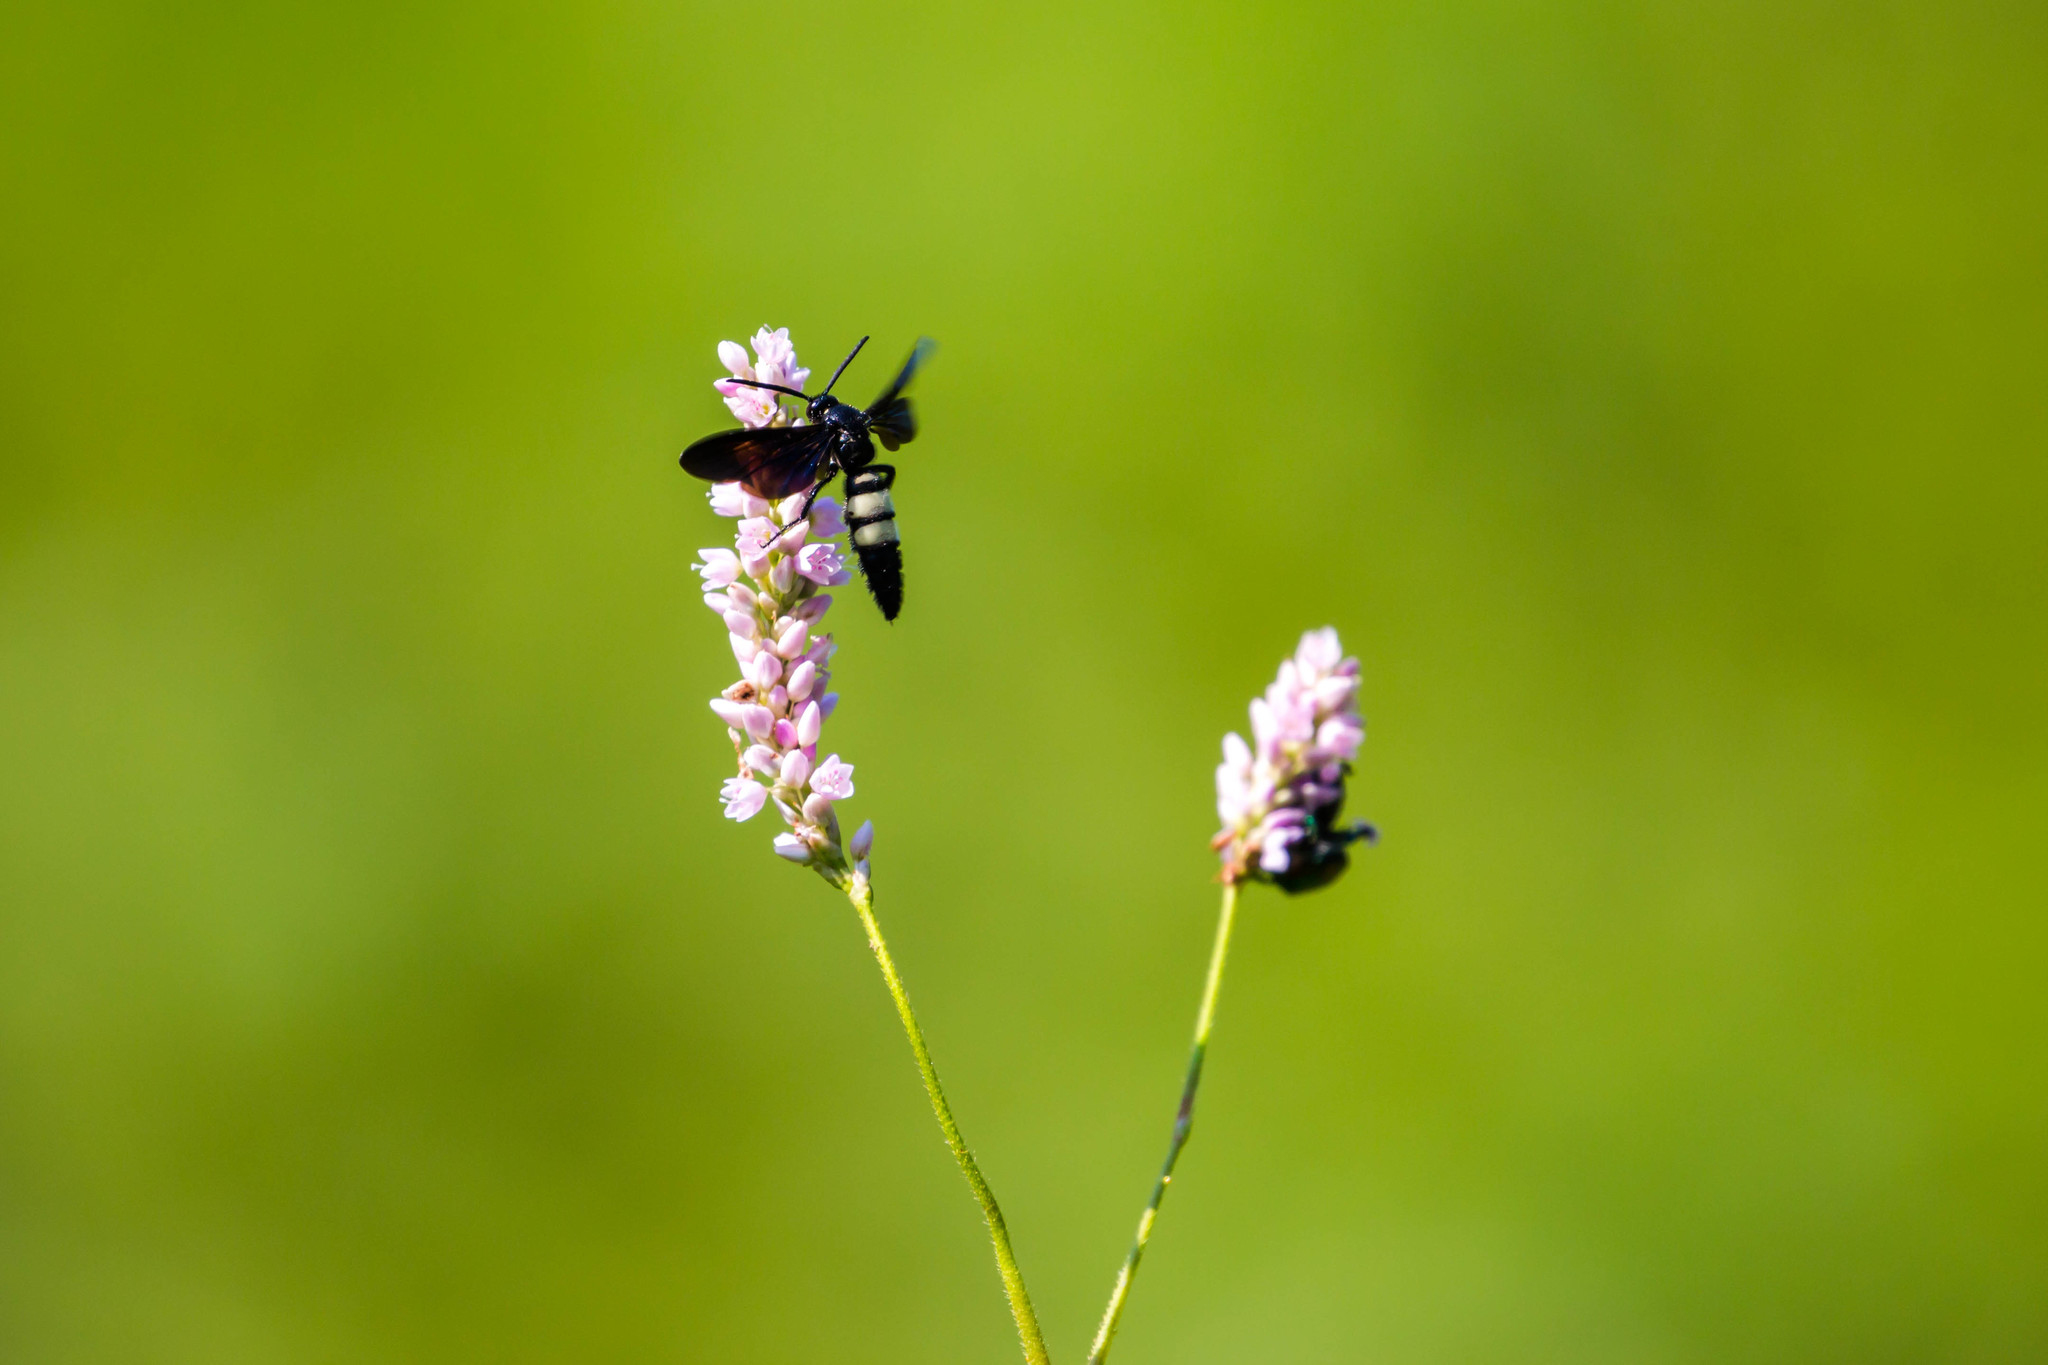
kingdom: Animalia
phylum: Arthropoda
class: Insecta
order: Hymenoptera
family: Scoliidae
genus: Scolia
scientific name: Scolia bicincta
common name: Double-banded scoliid wasp
